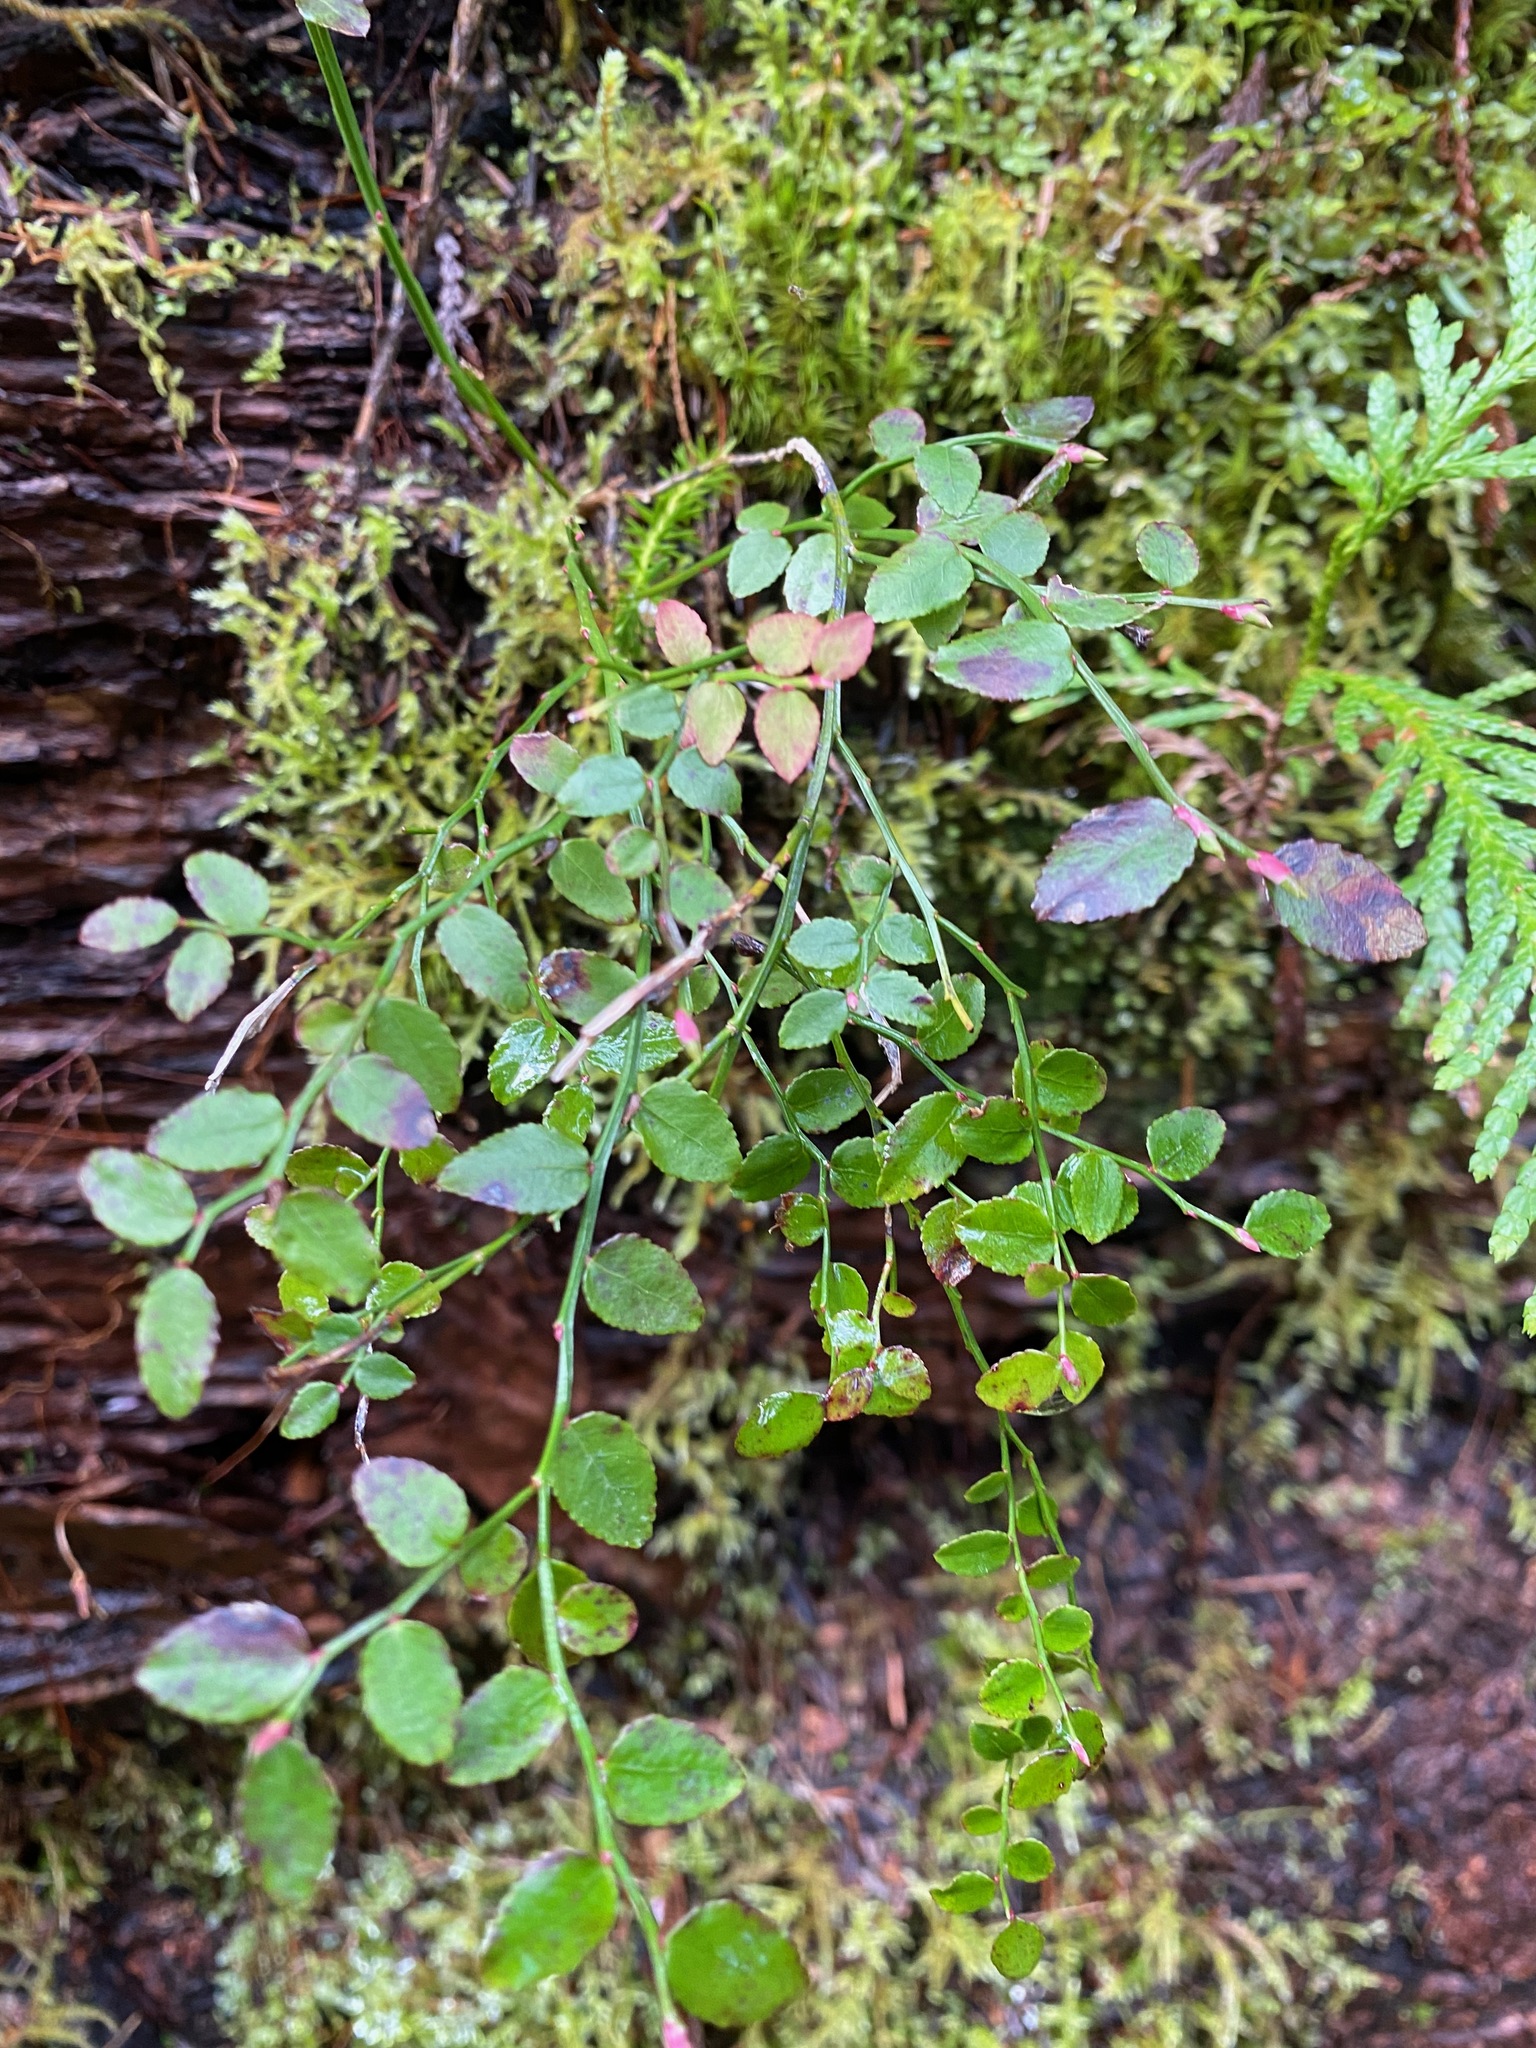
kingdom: Plantae
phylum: Tracheophyta
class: Magnoliopsida
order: Ericales
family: Ericaceae
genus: Vaccinium
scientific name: Vaccinium parvifolium
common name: Red-huckleberry
